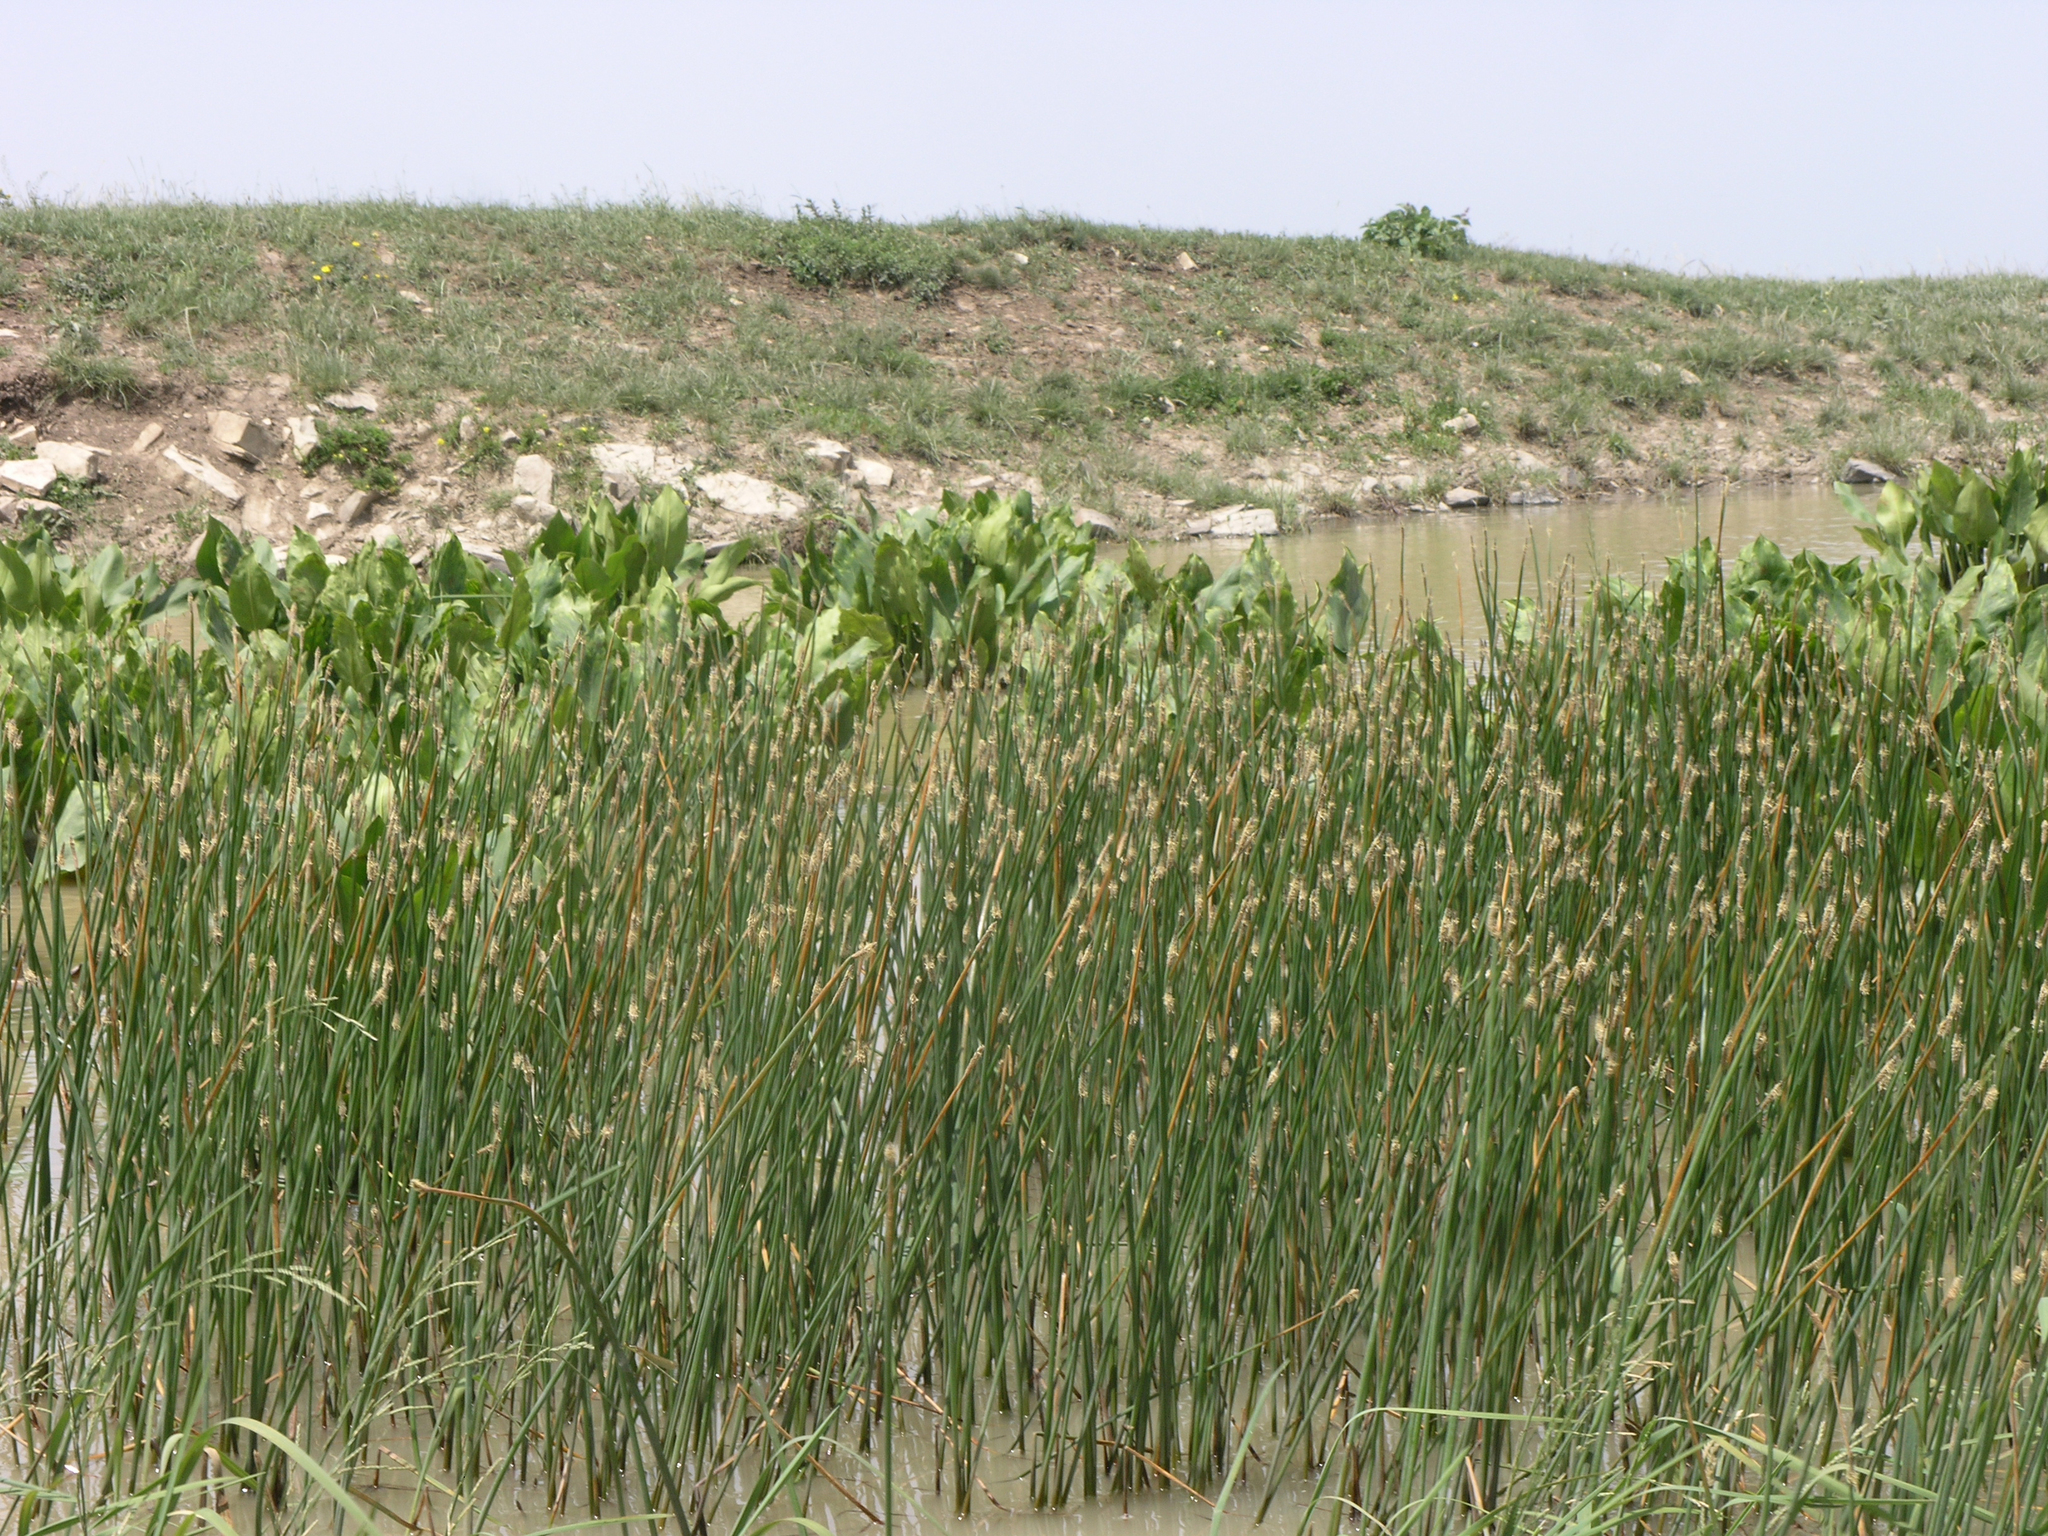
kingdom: Plantae
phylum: Tracheophyta
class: Liliopsida
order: Poales
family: Cyperaceae
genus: Eleocharis
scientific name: Eleocharis palustris
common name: Common spike-rush
